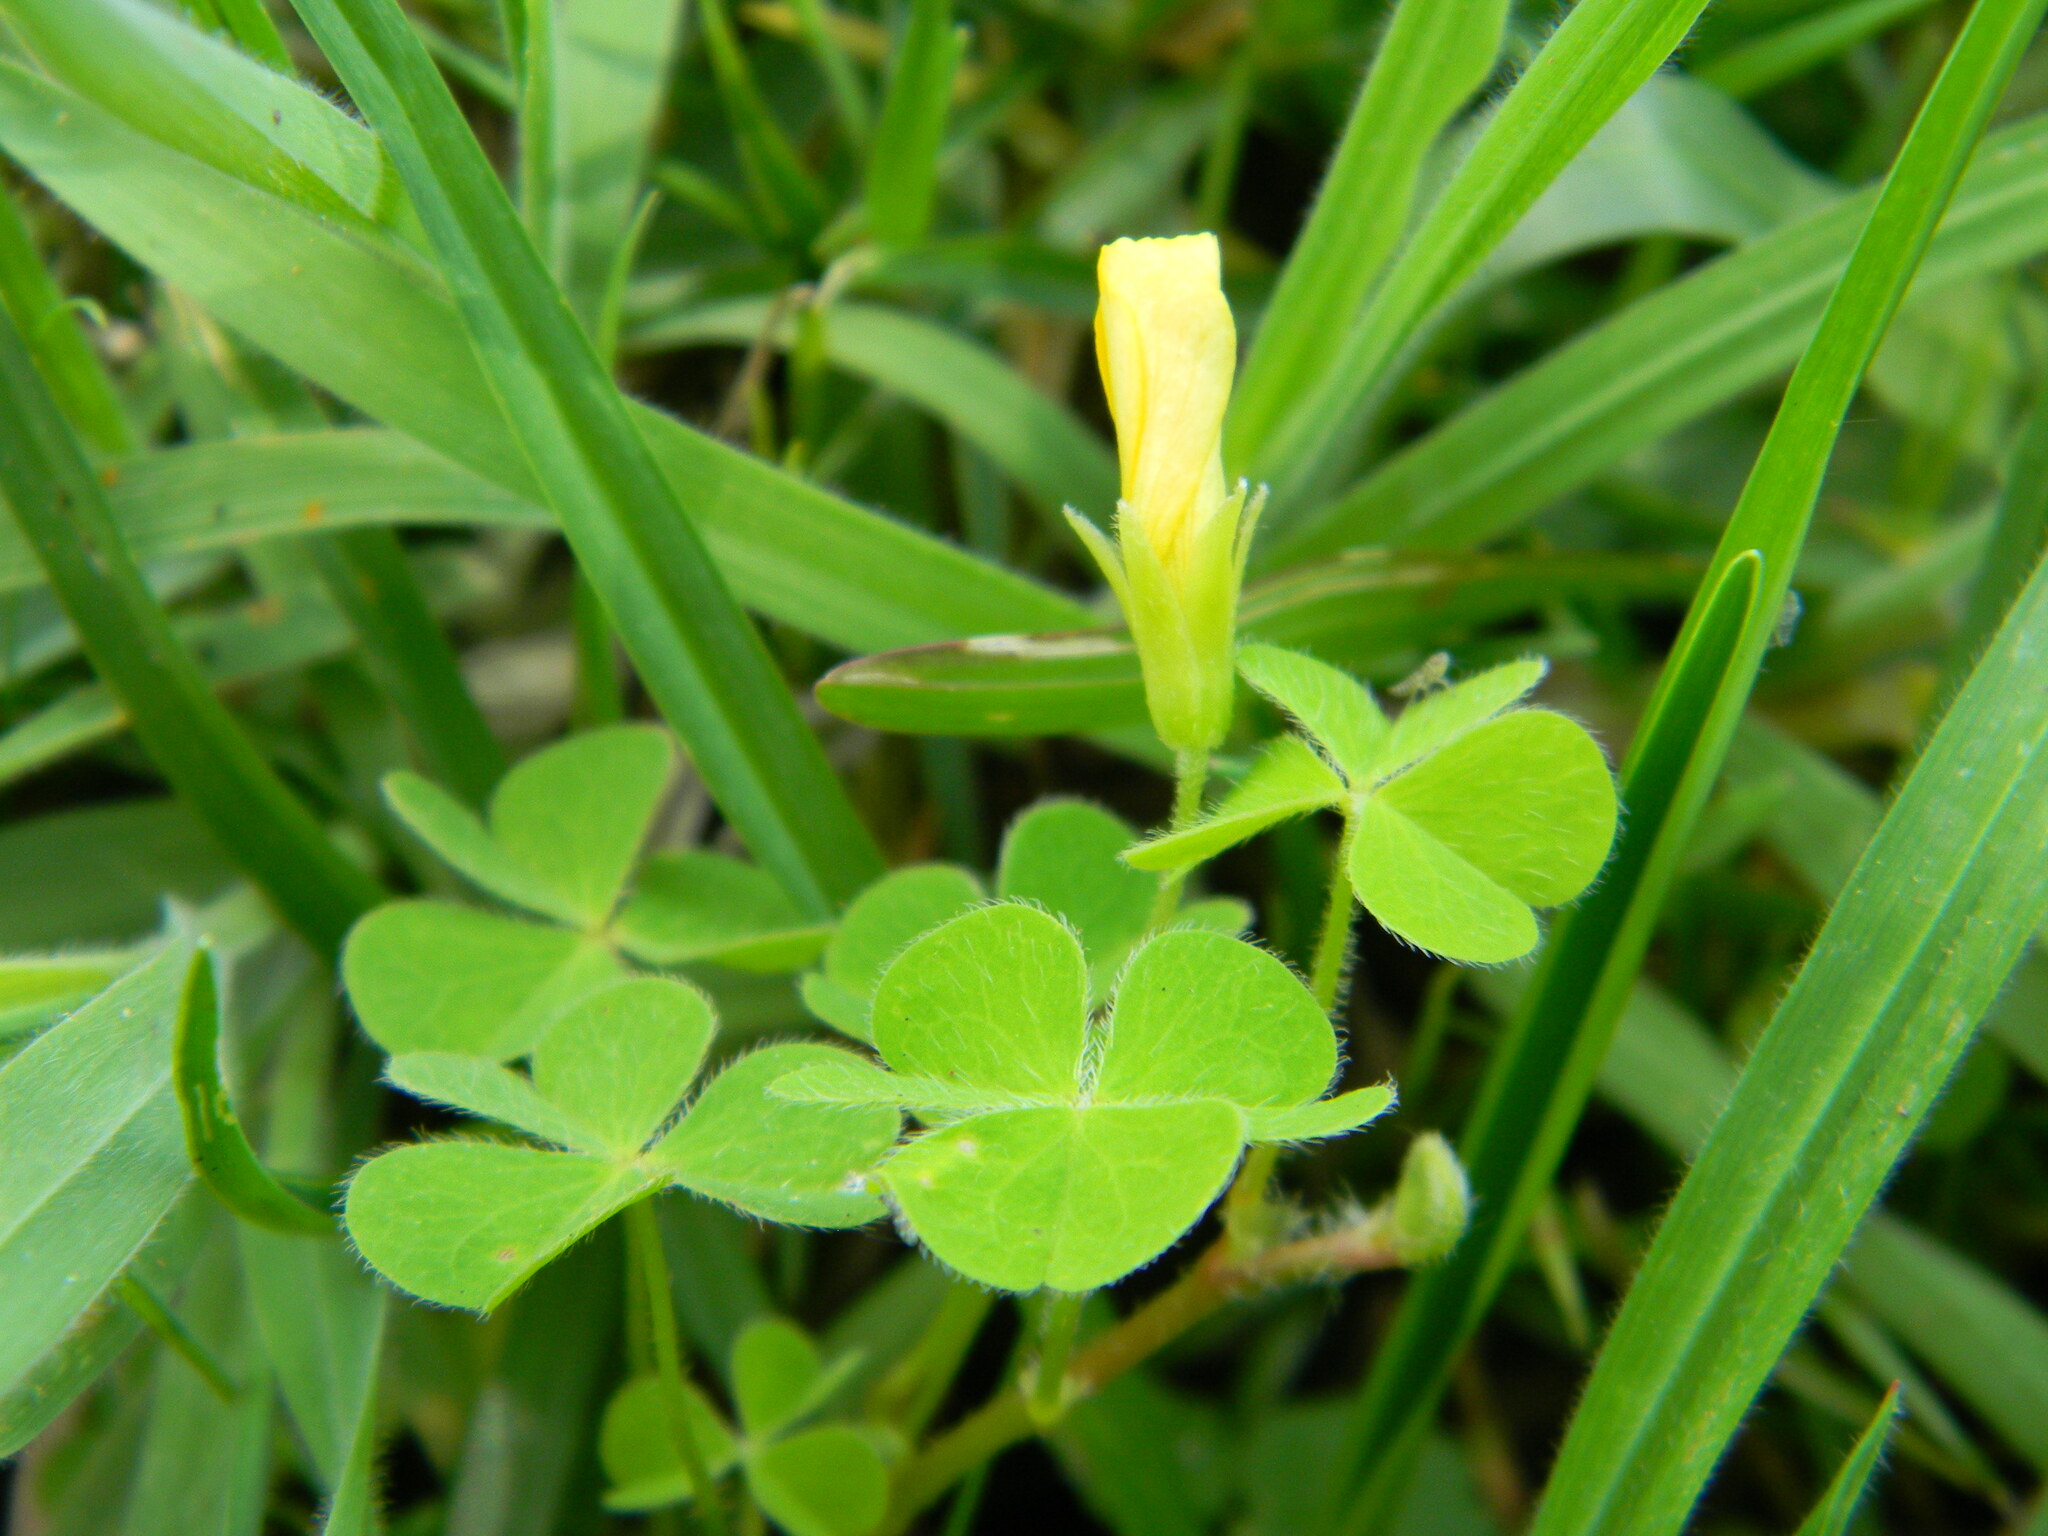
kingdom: Plantae
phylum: Tracheophyta
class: Magnoliopsida
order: Oxalidales
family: Oxalidaceae
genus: Oxalis
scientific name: Oxalis corniculata
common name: Procumbent yellow-sorrel
